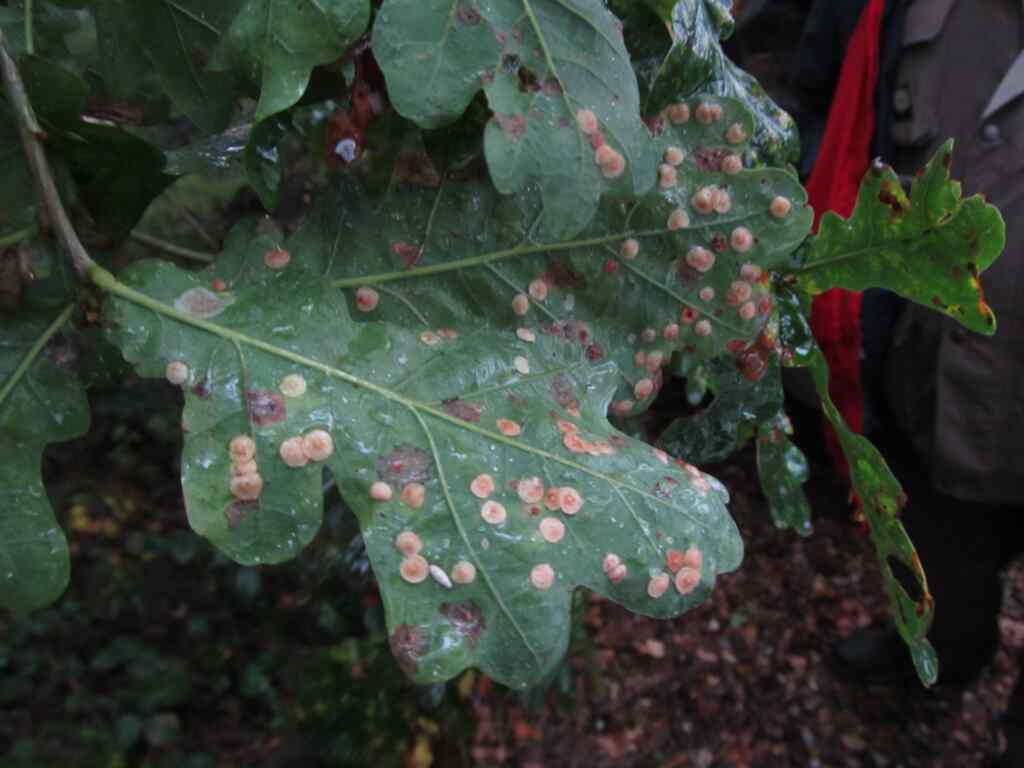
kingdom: Animalia
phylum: Arthropoda
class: Insecta
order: Hymenoptera
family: Cynipidae
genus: Neuroterus
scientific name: Neuroterus quercusbaccarum
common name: Common spangle gall
